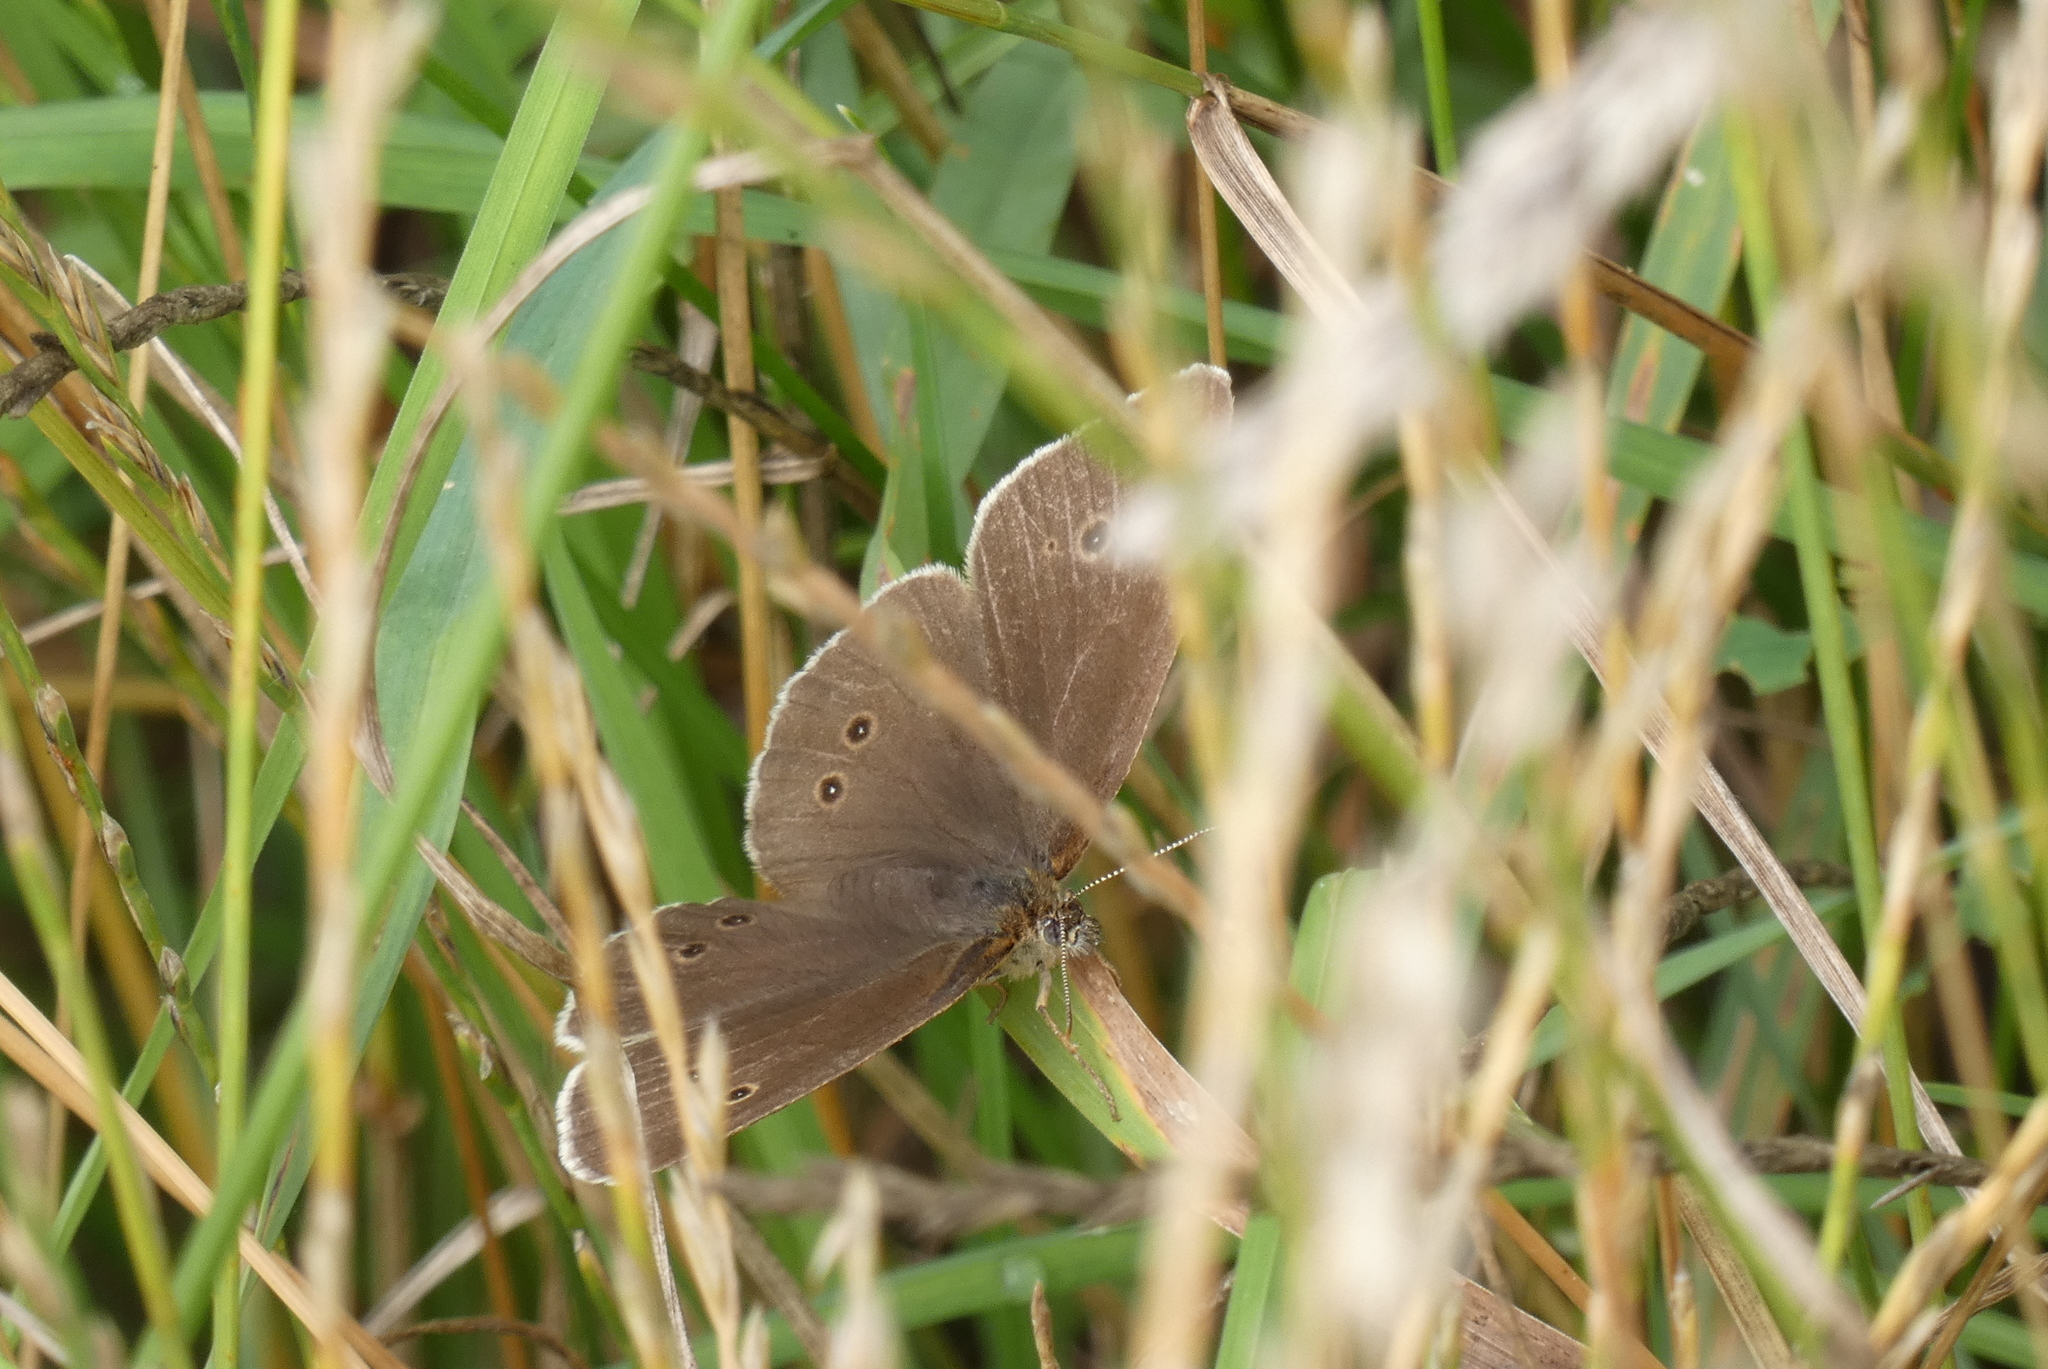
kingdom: Animalia
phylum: Arthropoda
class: Insecta
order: Lepidoptera
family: Nymphalidae
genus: Aphantopus
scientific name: Aphantopus hyperantus
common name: Ringlet
